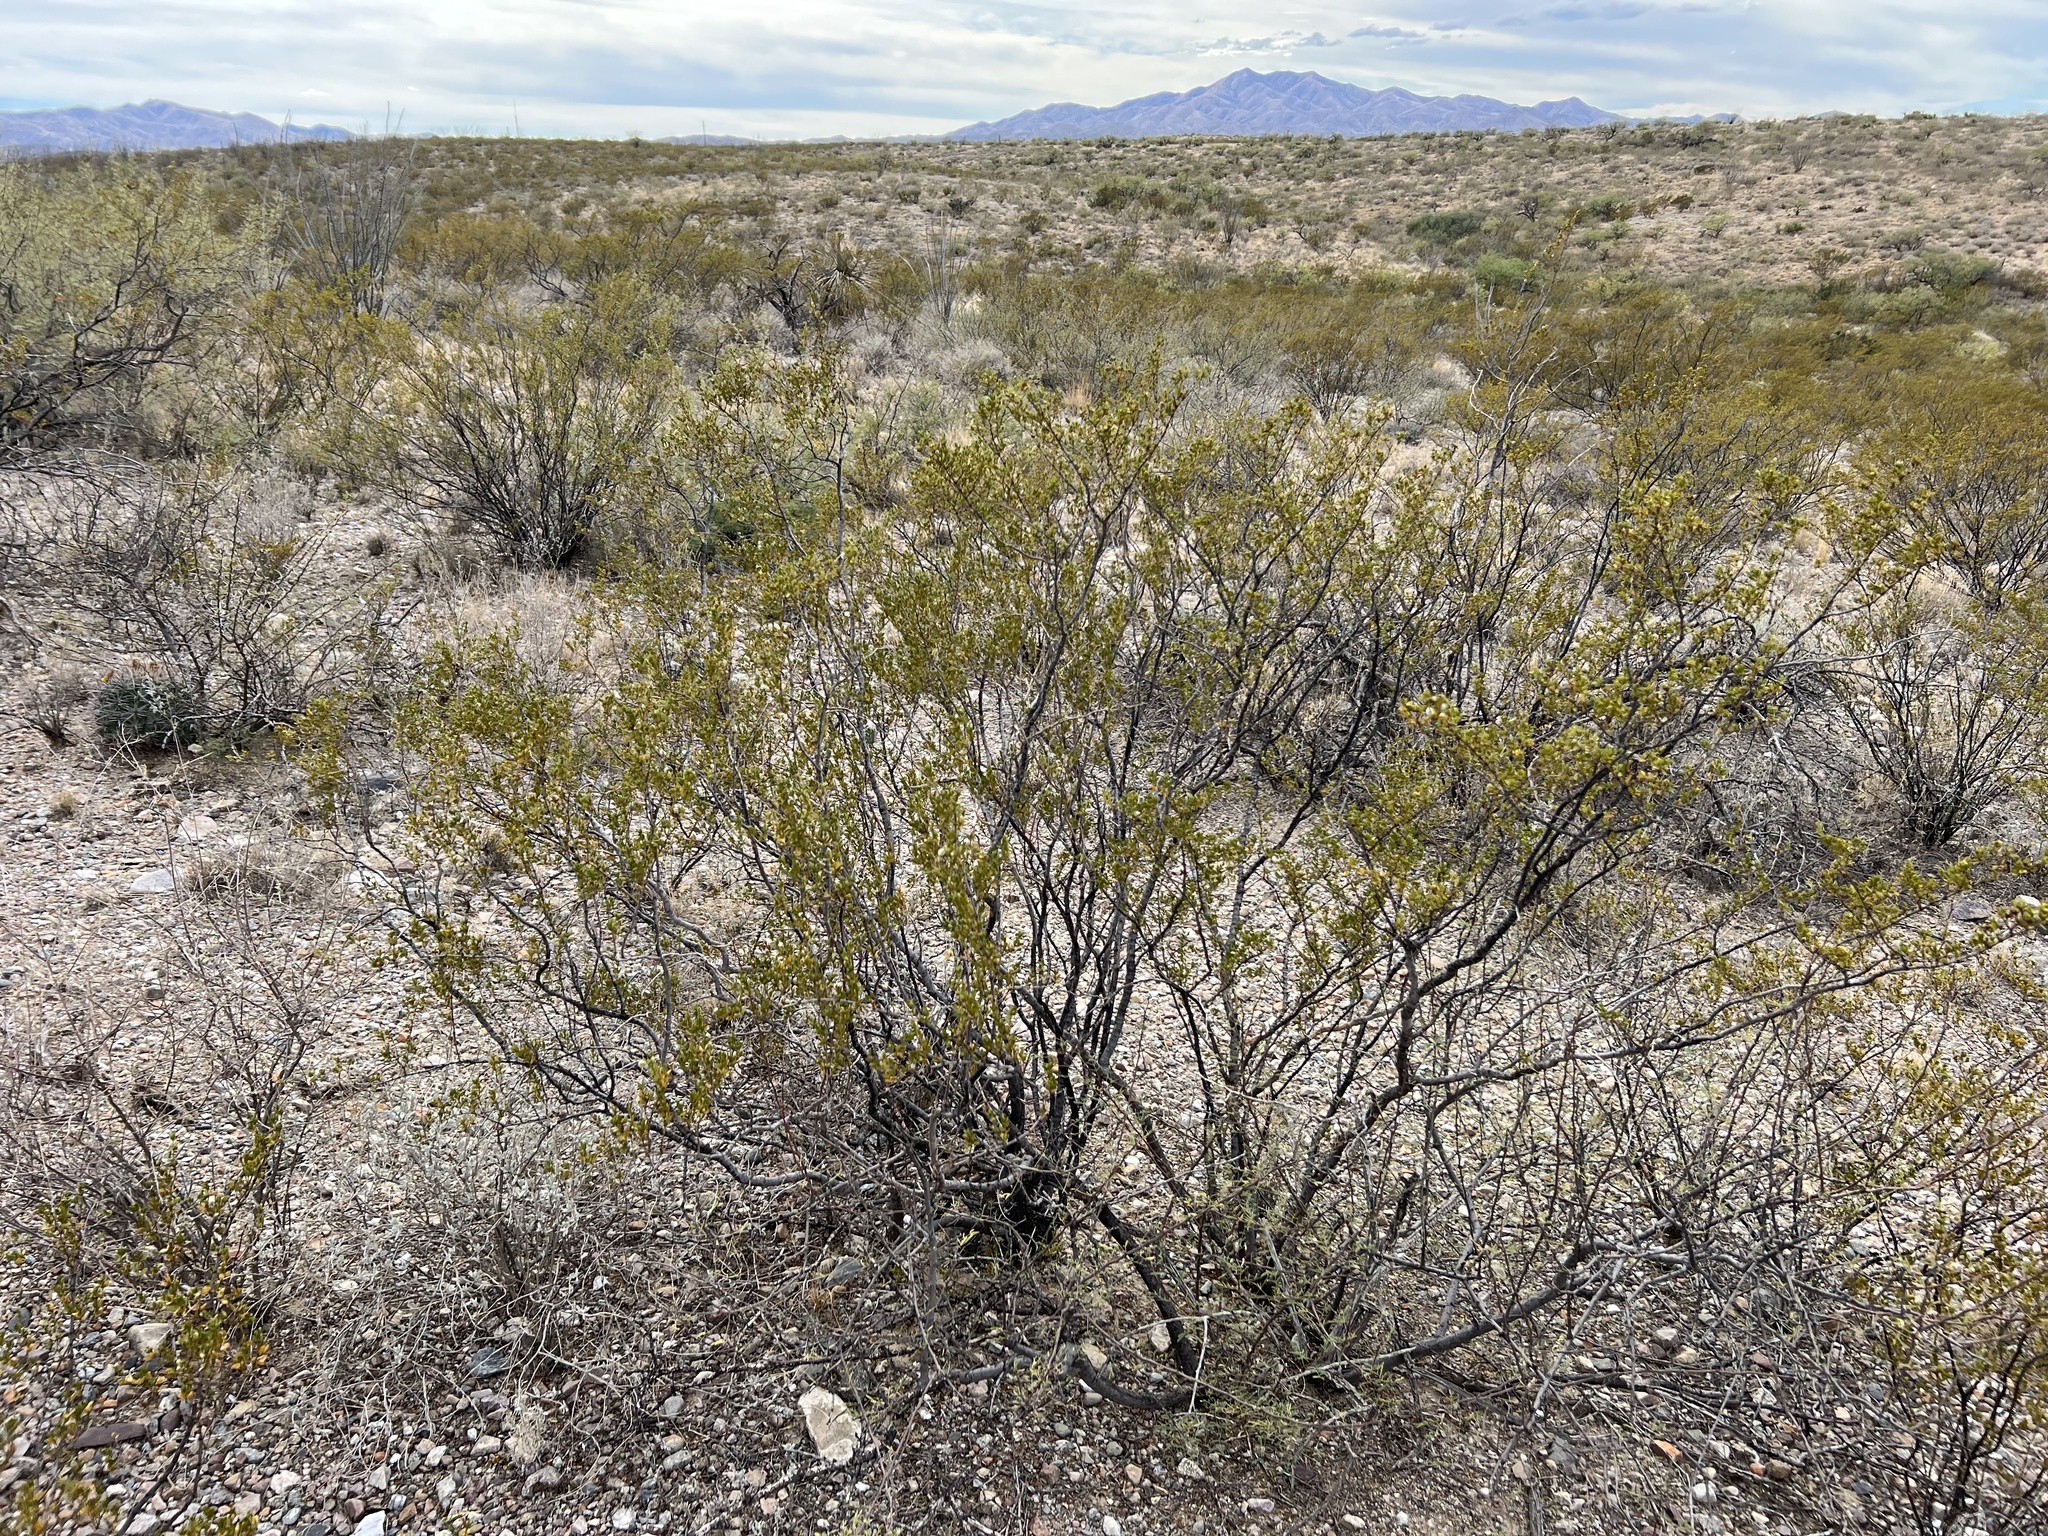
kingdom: Plantae
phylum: Tracheophyta
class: Magnoliopsida
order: Zygophyllales
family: Zygophyllaceae
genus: Larrea
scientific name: Larrea tridentata
